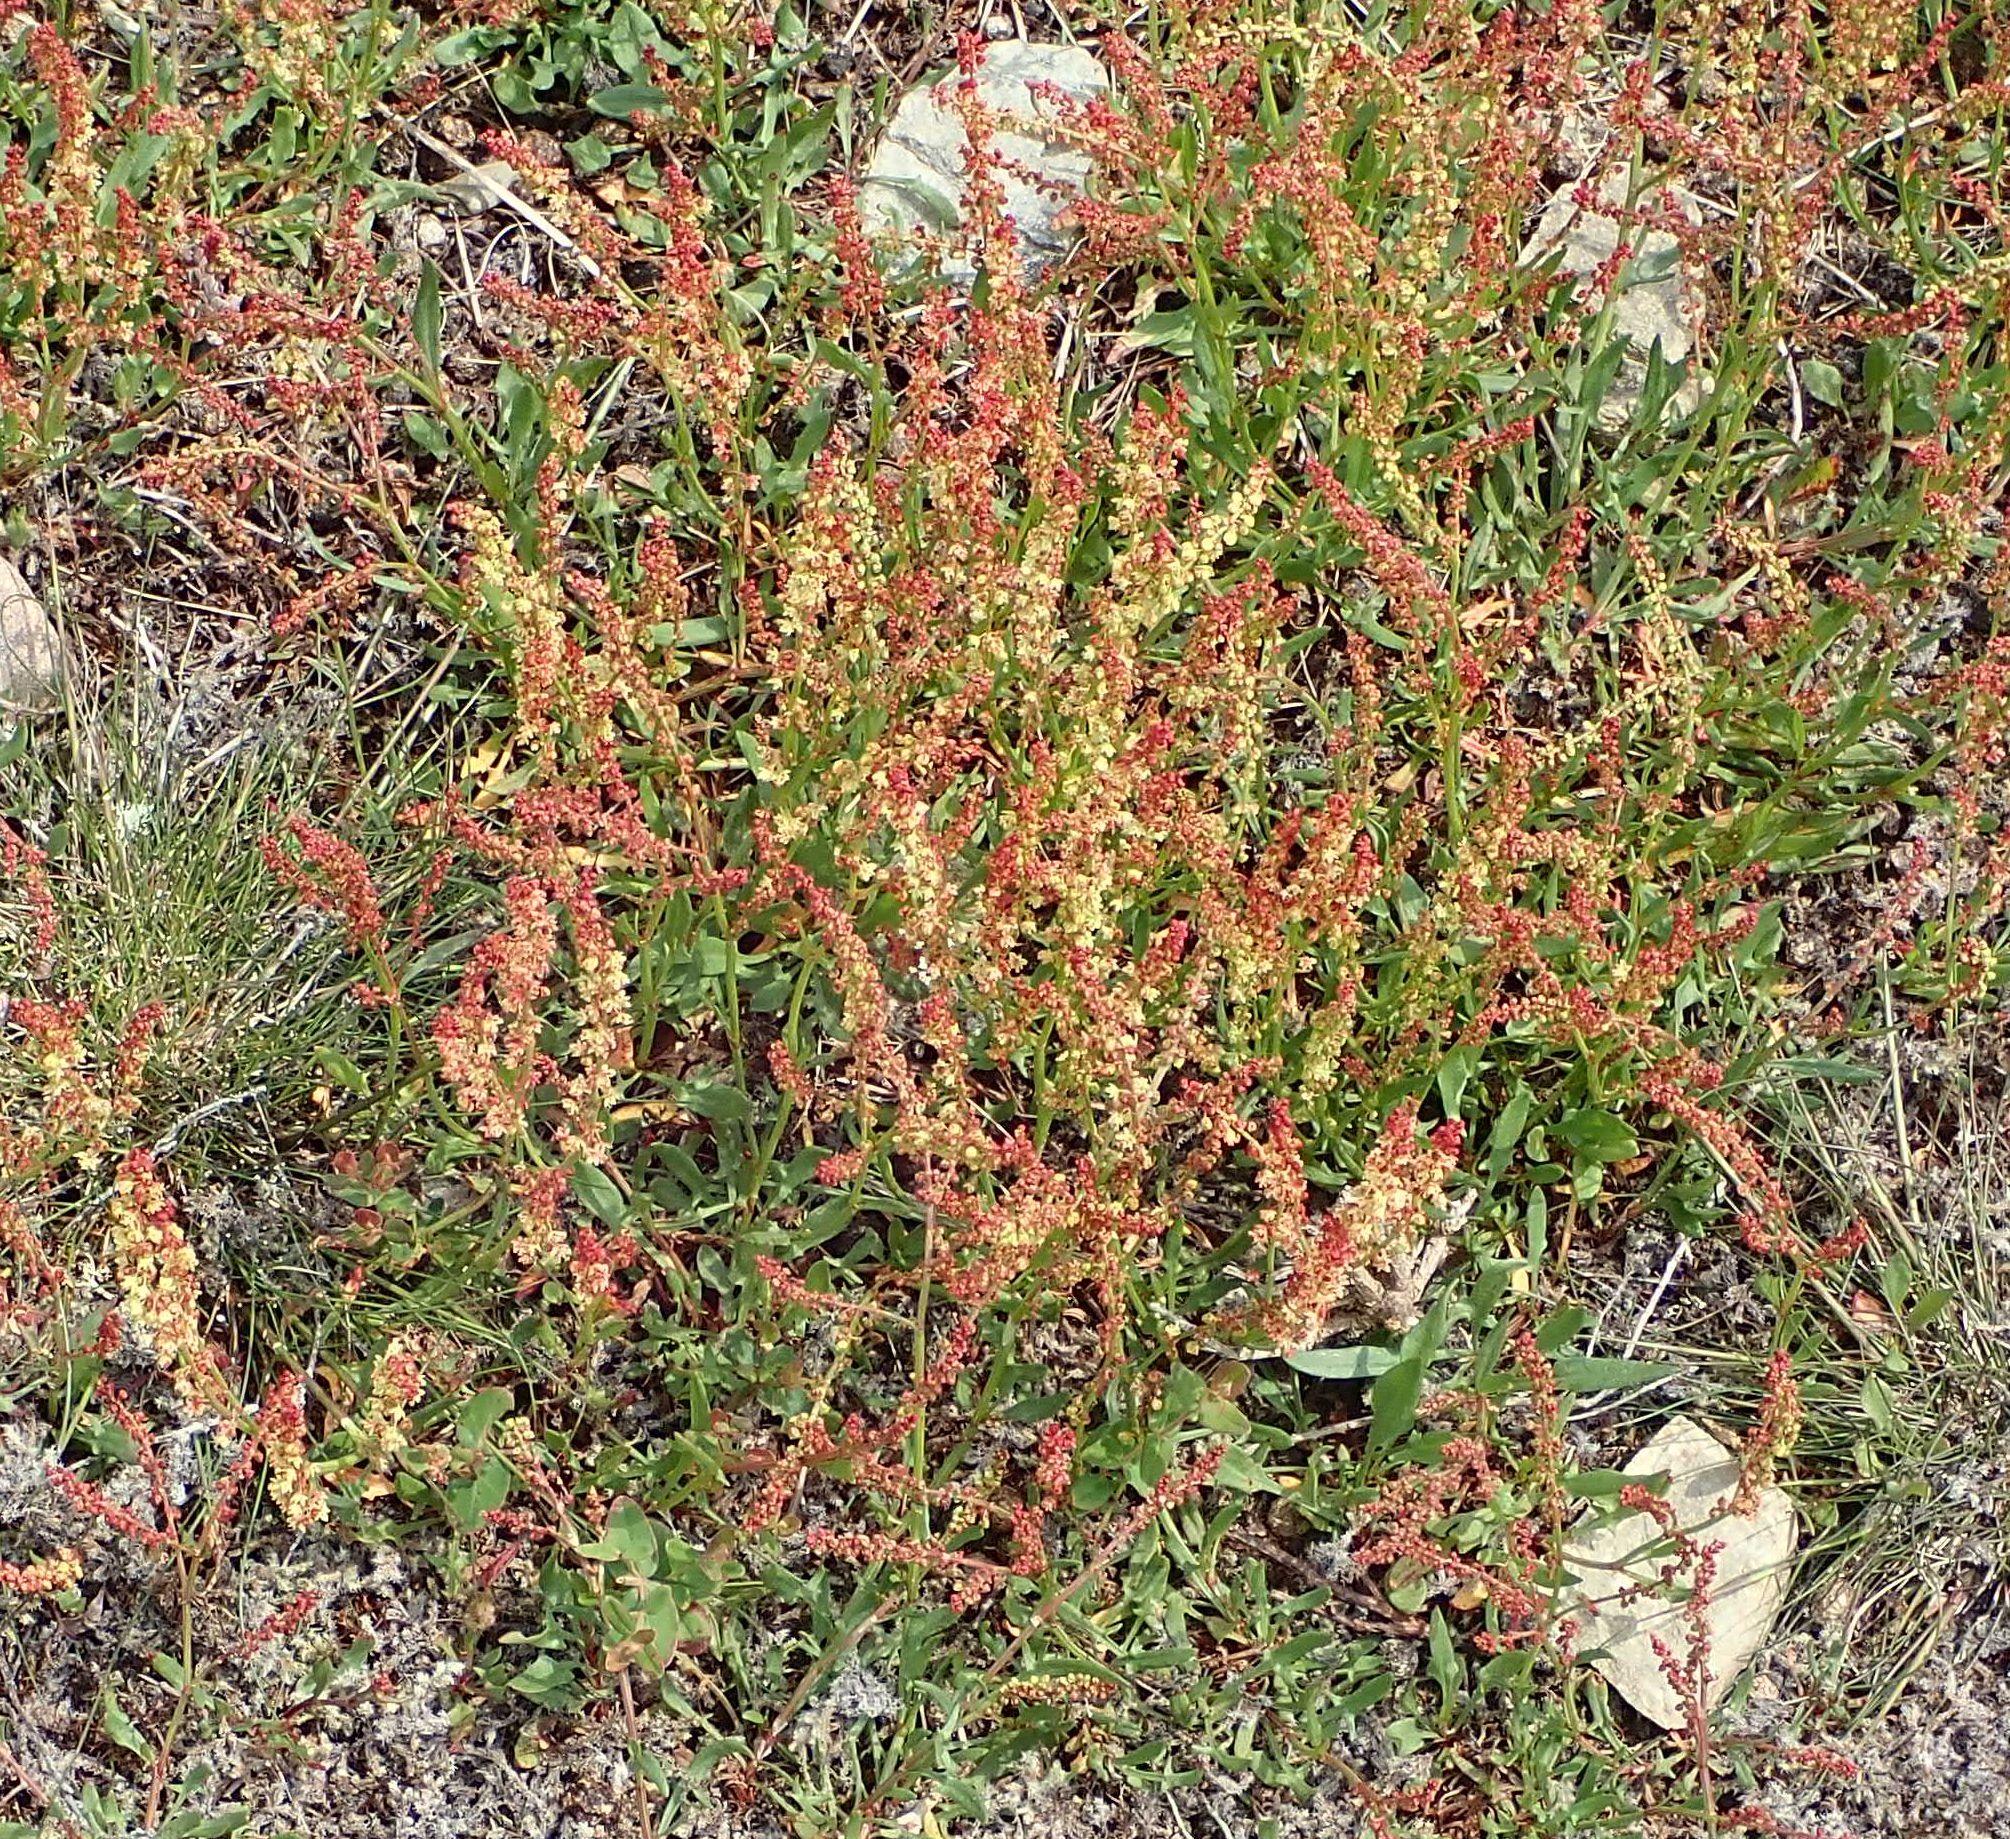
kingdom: Plantae
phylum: Tracheophyta
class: Magnoliopsida
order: Caryophyllales
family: Polygonaceae
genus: Rumex
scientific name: Rumex acetosella
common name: Common sheep sorrel
